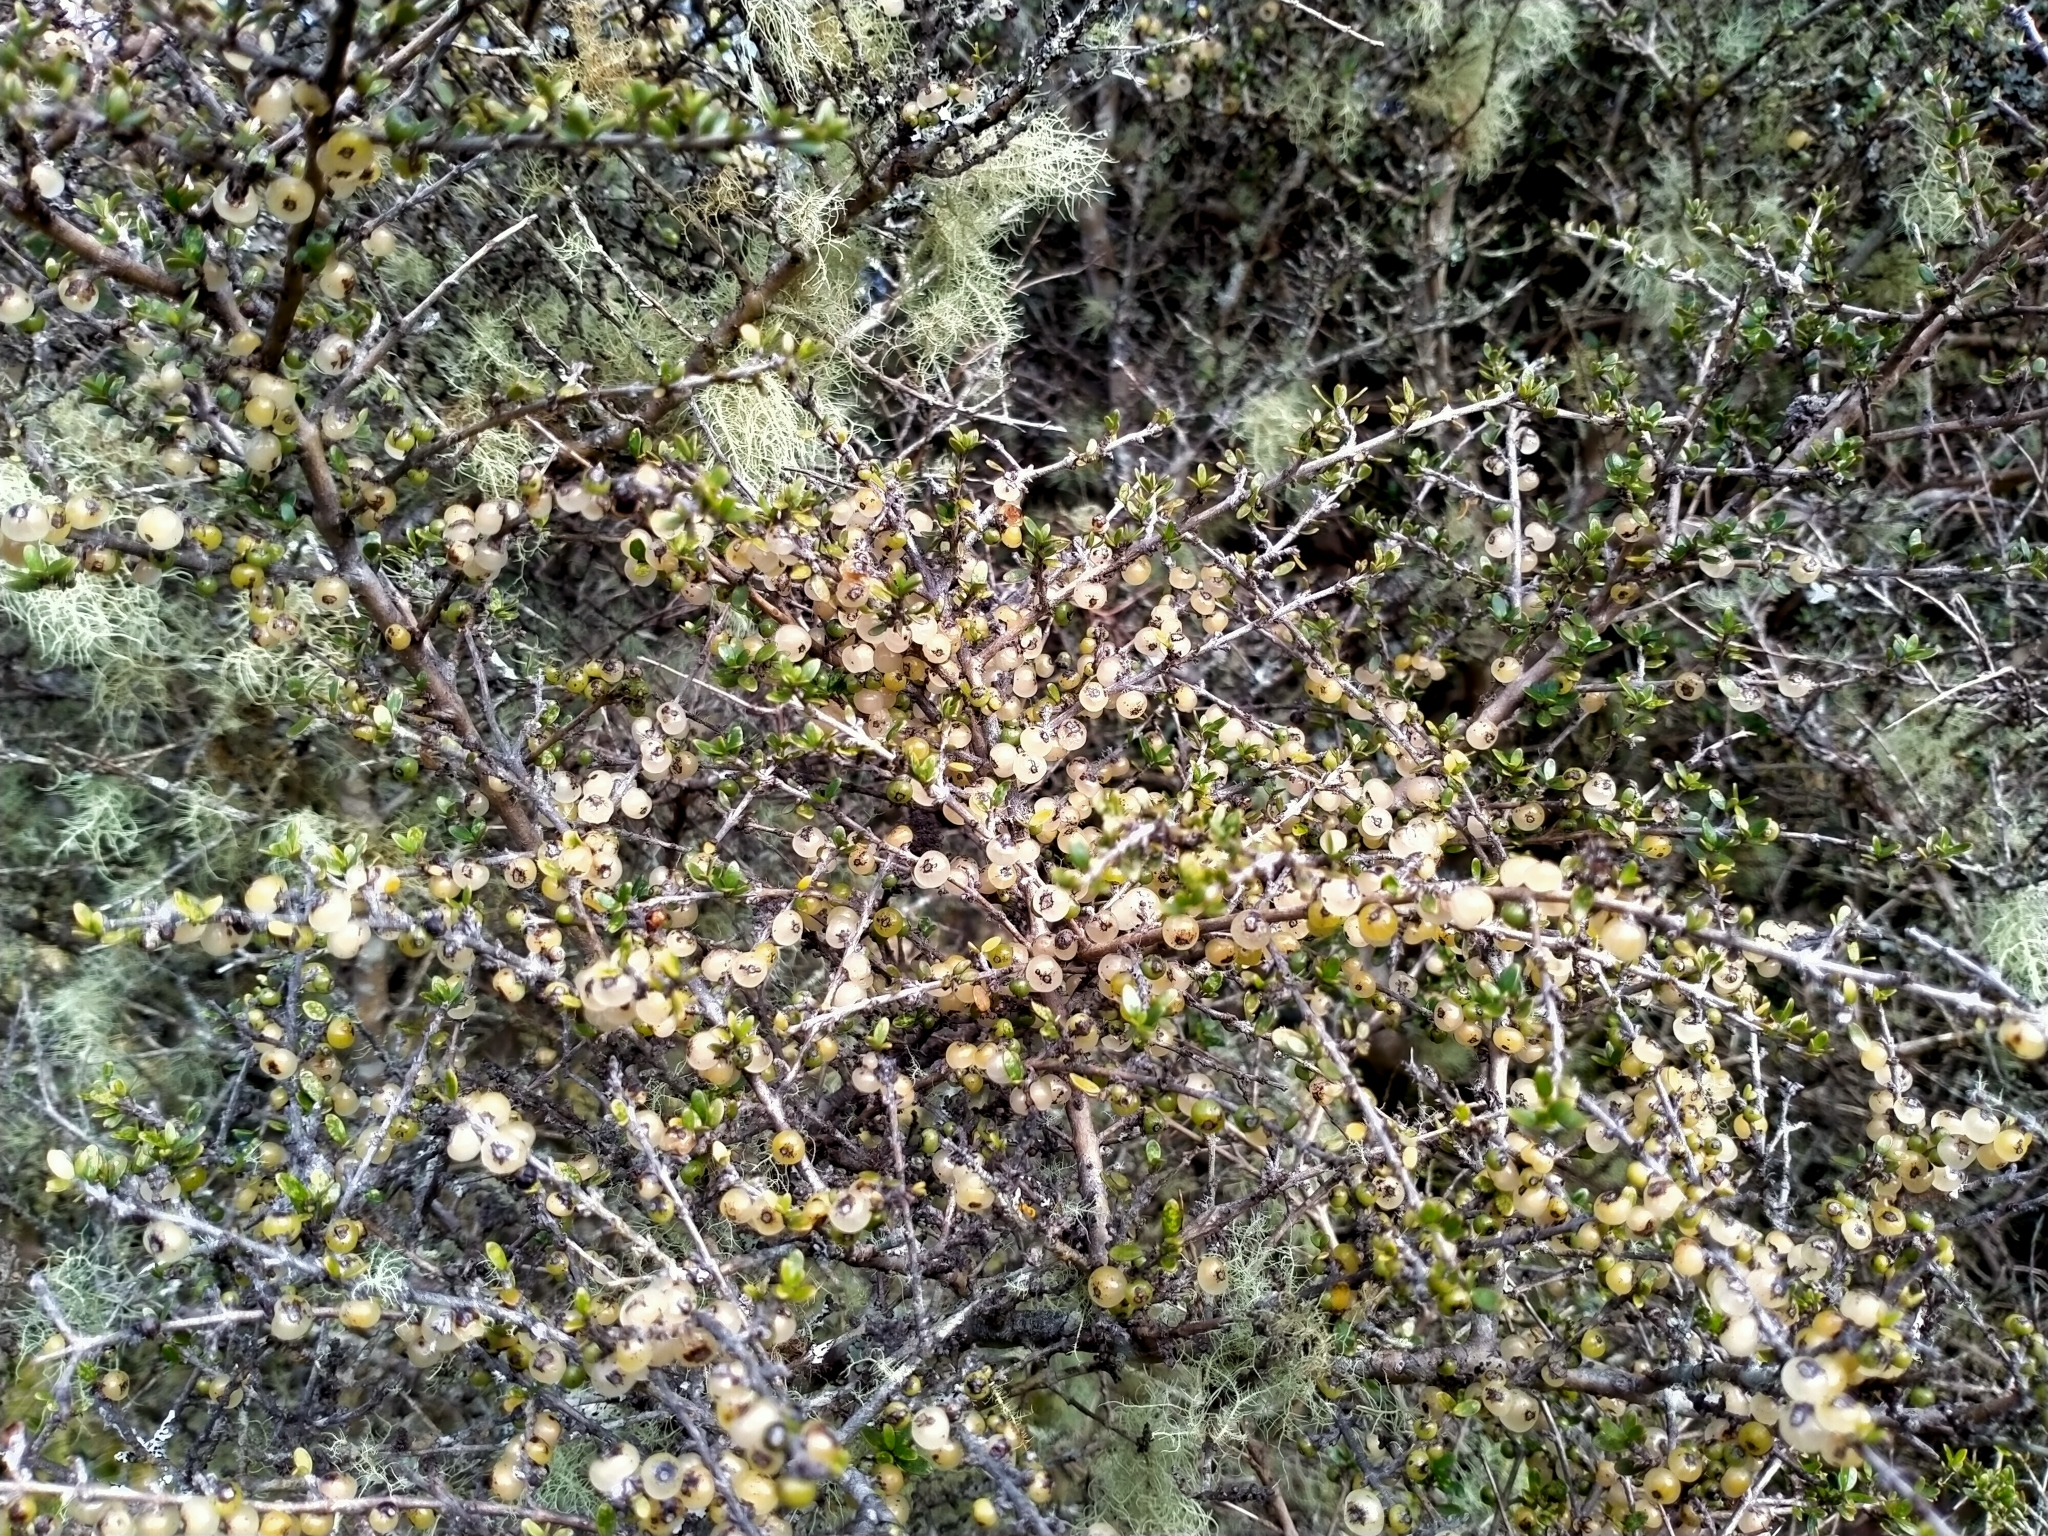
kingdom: Plantae
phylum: Tracheophyta
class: Magnoliopsida
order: Gentianales
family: Rubiaceae
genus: Coprosma
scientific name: Coprosma dumosa
